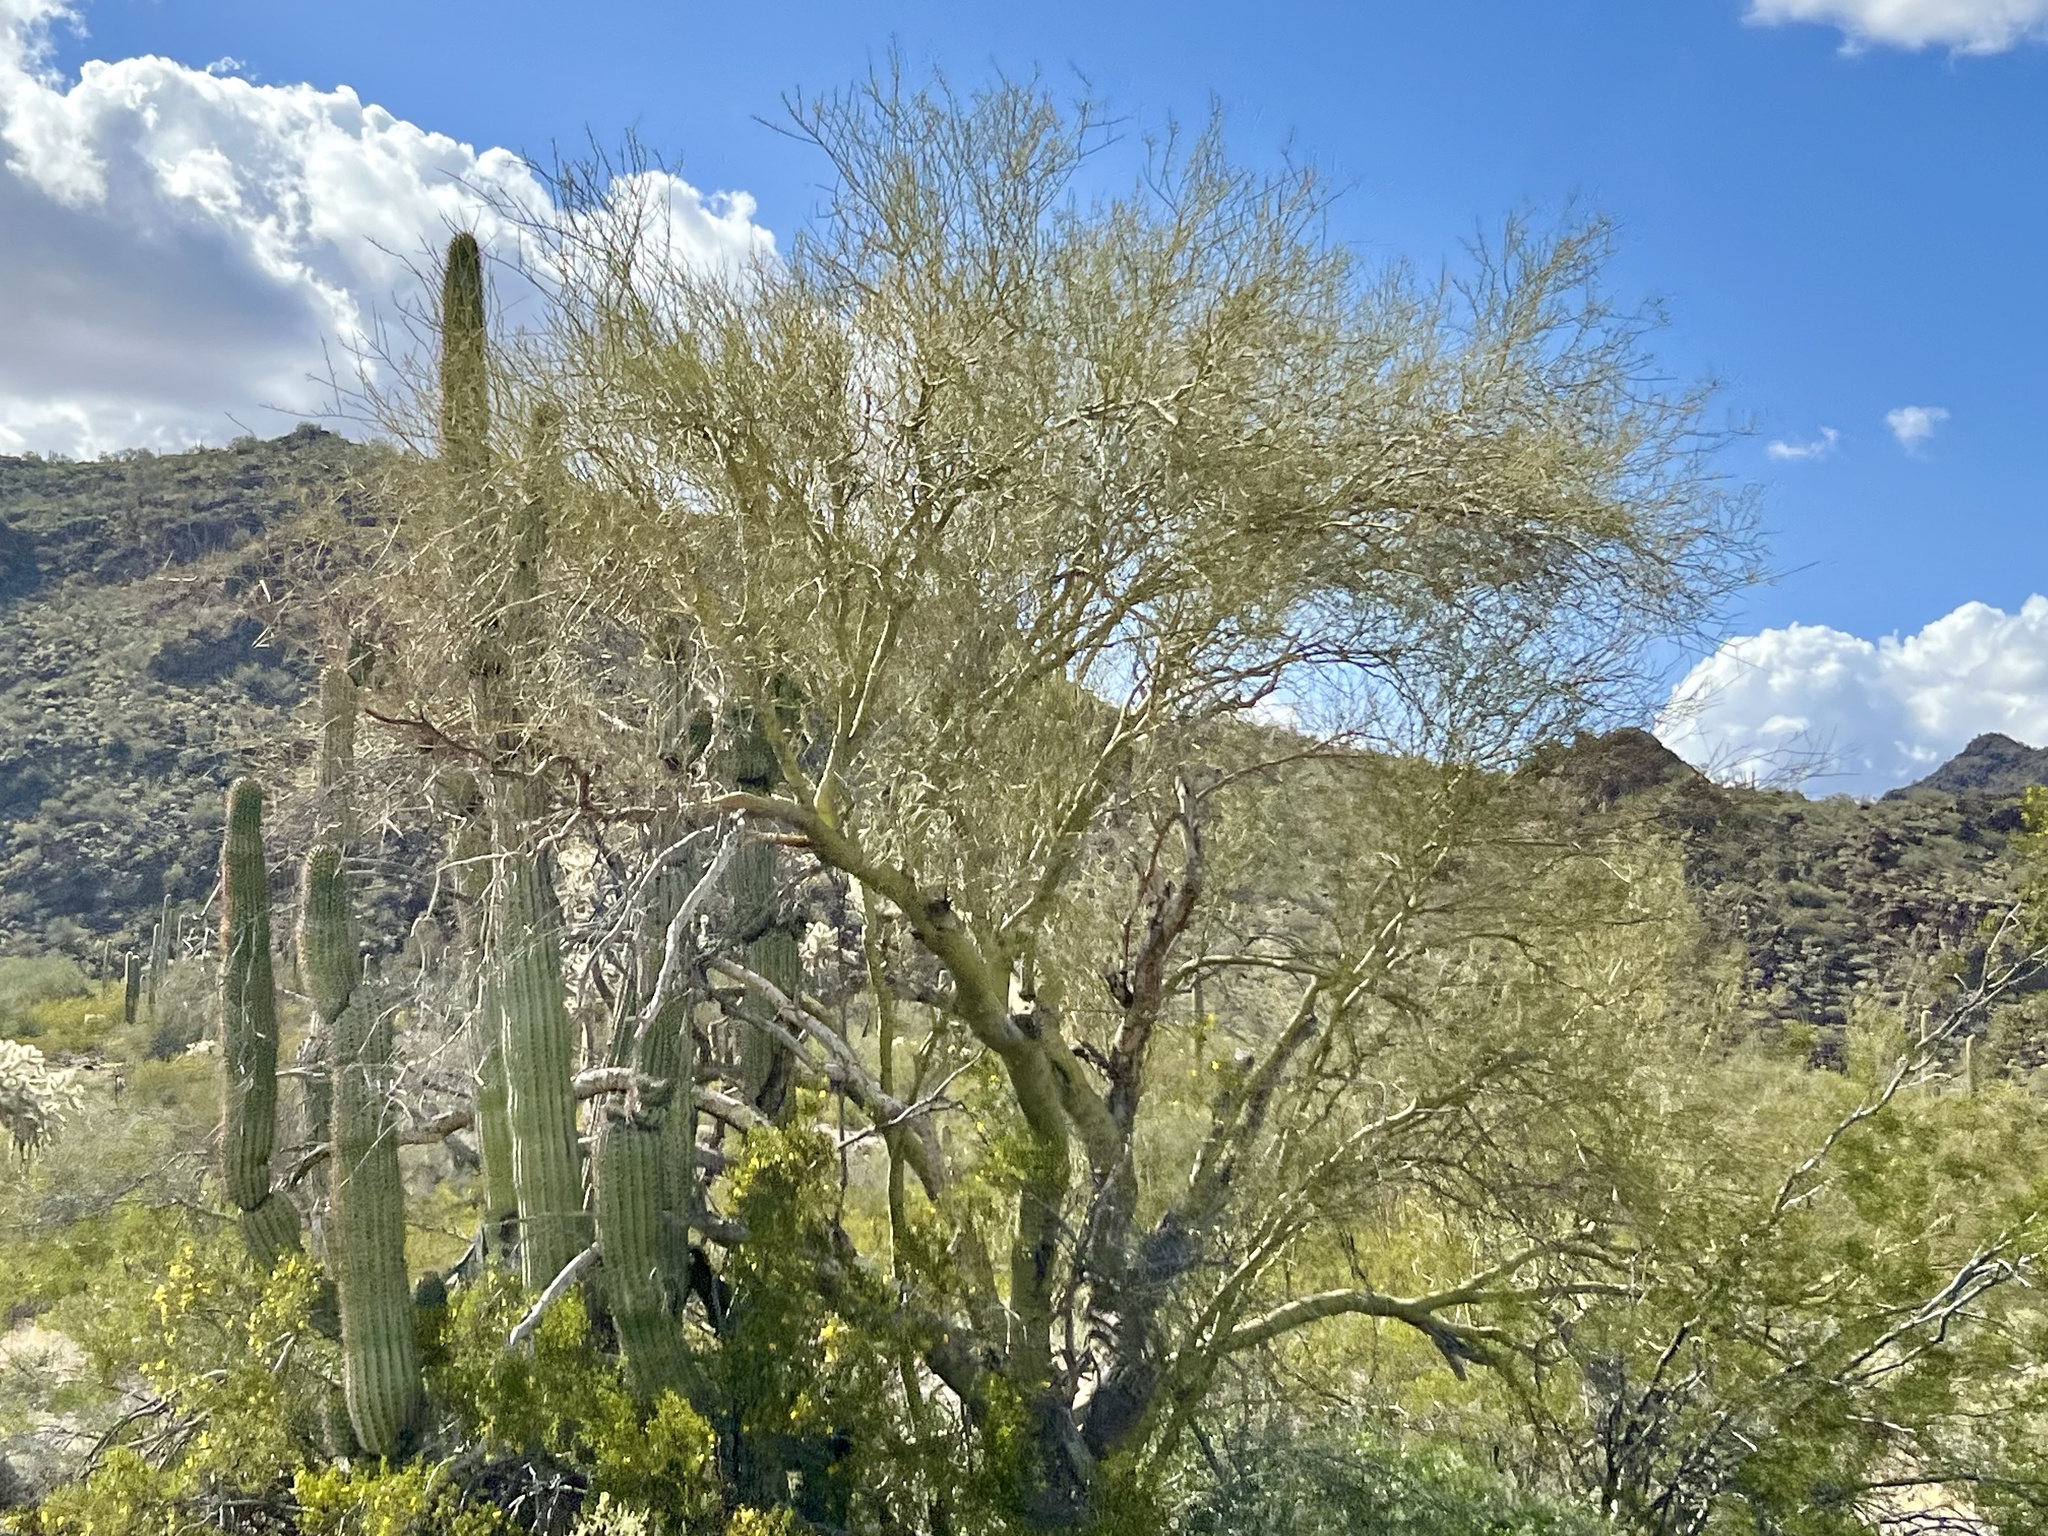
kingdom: Plantae
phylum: Tracheophyta
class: Magnoliopsida
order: Fabales
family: Fabaceae
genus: Parkinsonia
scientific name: Parkinsonia microphylla
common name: Yellow paloverde
